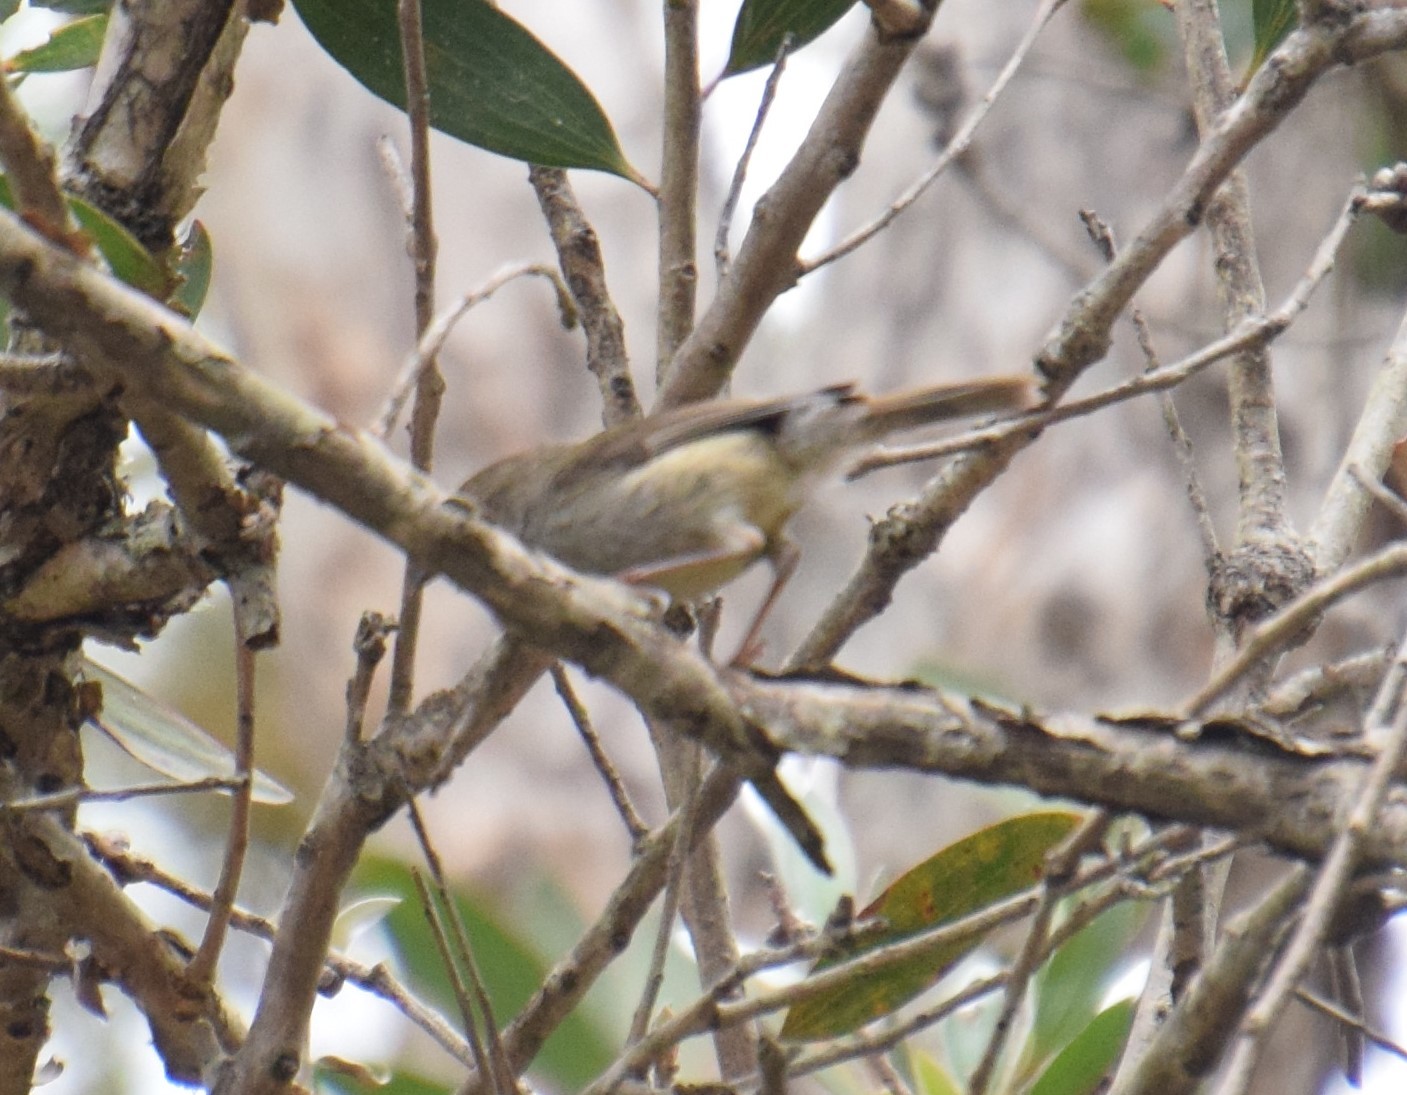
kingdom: Animalia
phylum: Chordata
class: Aves
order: Passeriformes
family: Acanthizidae
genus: Acanthiza
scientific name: Acanthiza pusilla
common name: Brown thornbill
